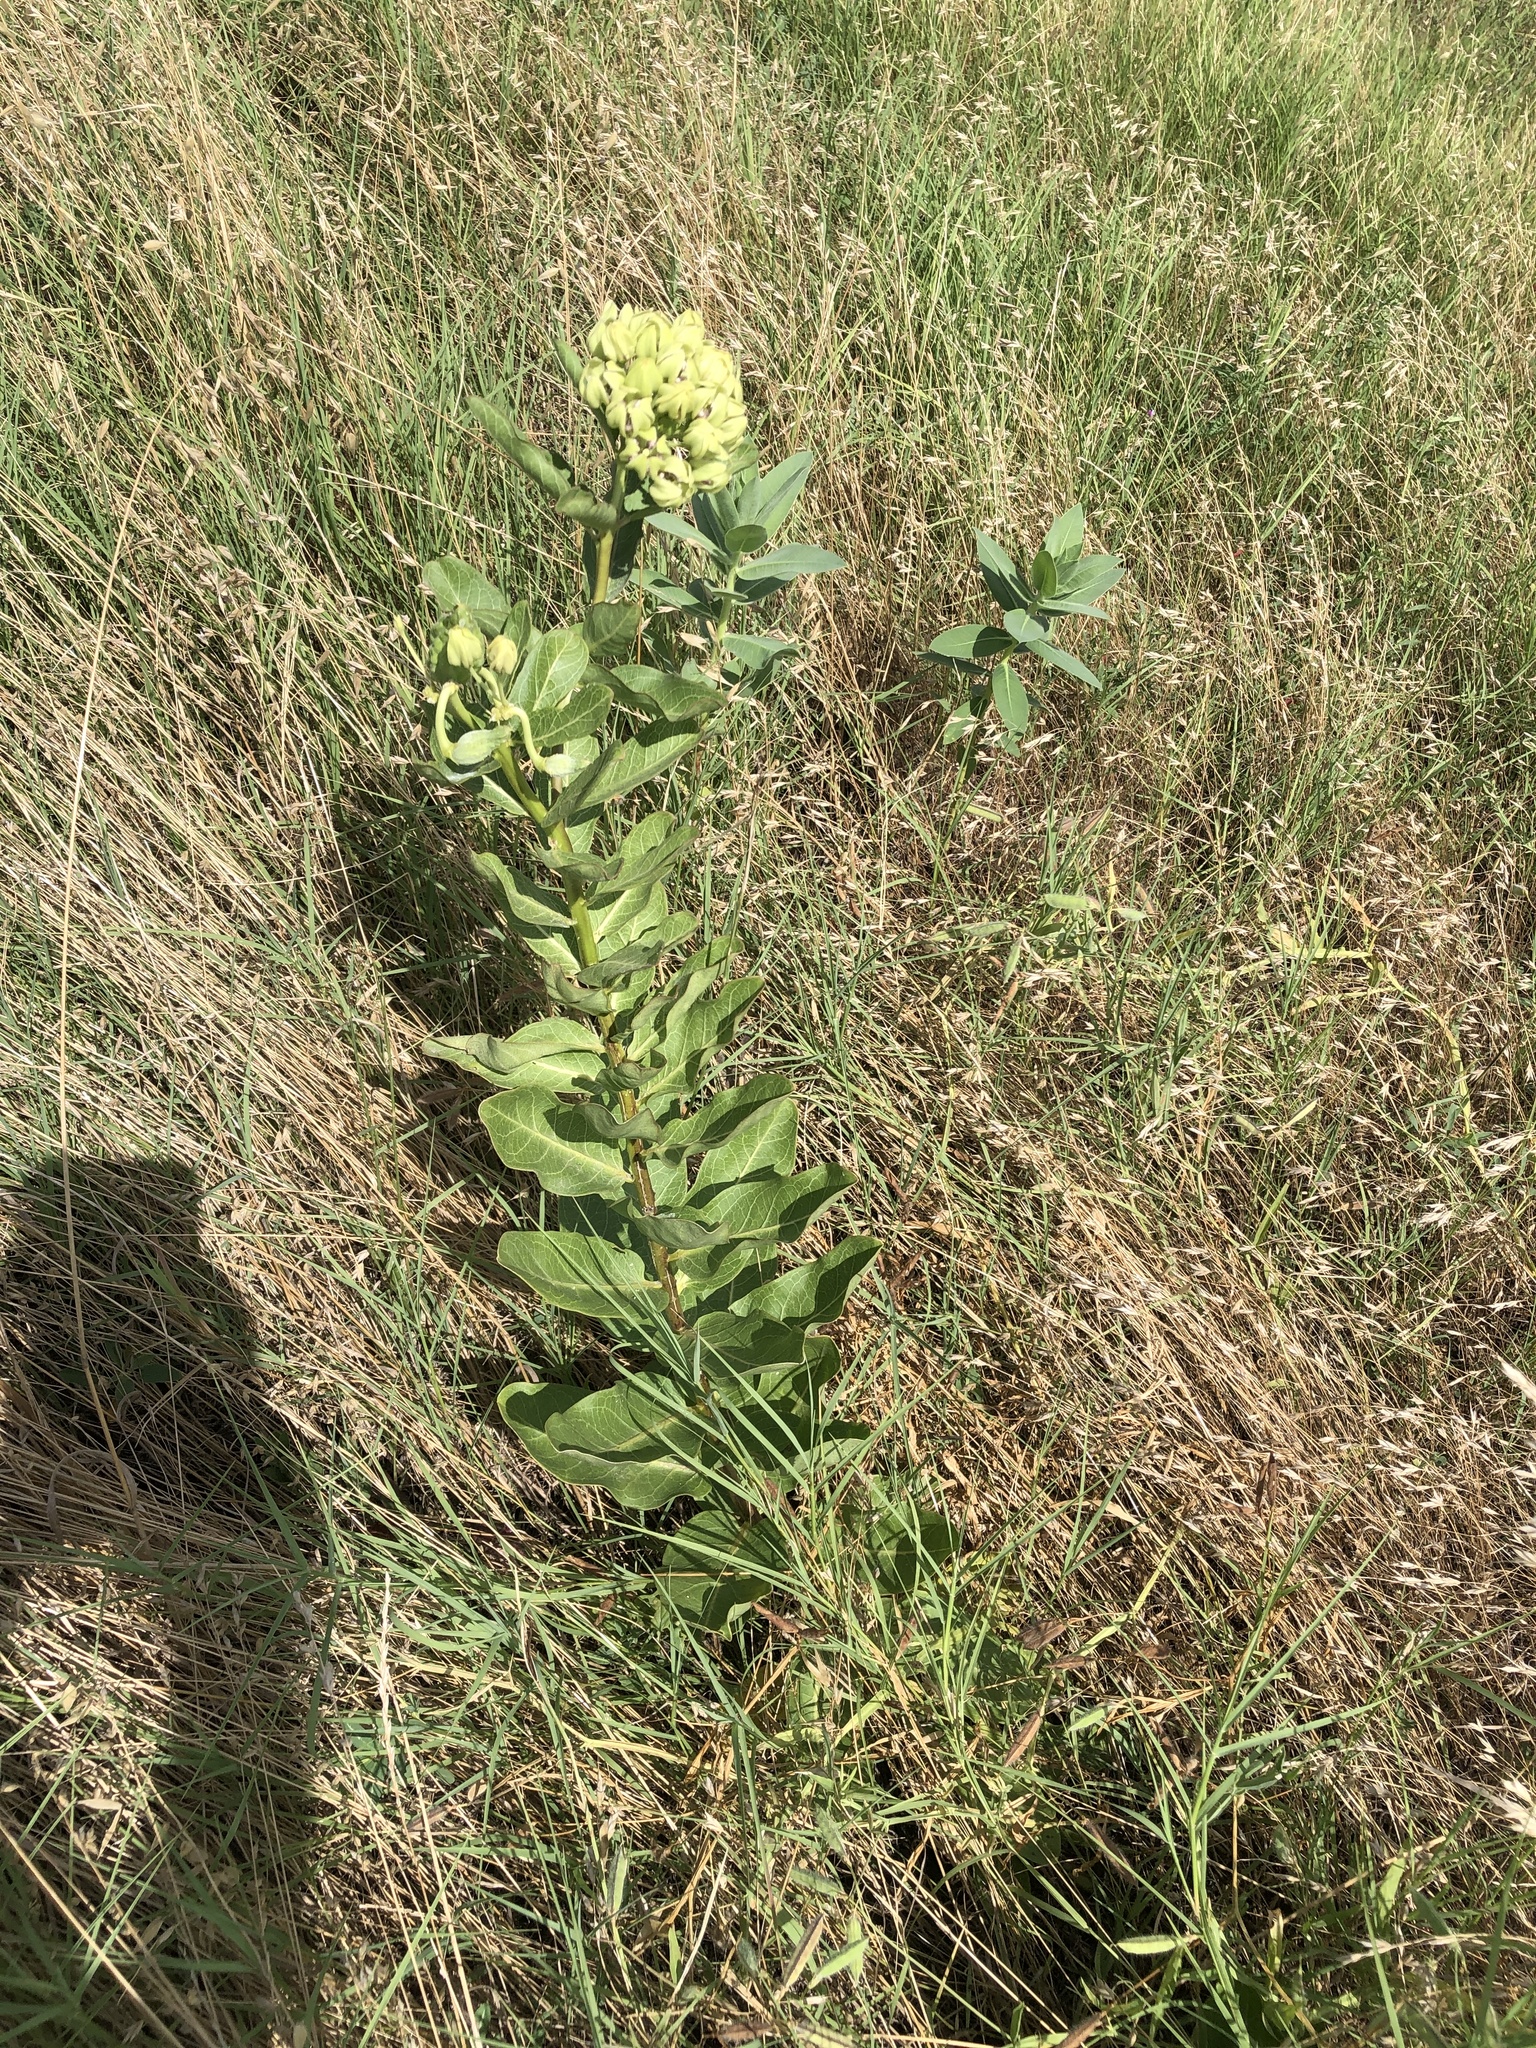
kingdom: Plantae
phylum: Tracheophyta
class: Magnoliopsida
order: Gentianales
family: Apocynaceae
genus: Asclepias
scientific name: Asclepias viridis
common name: Antelope-horns
